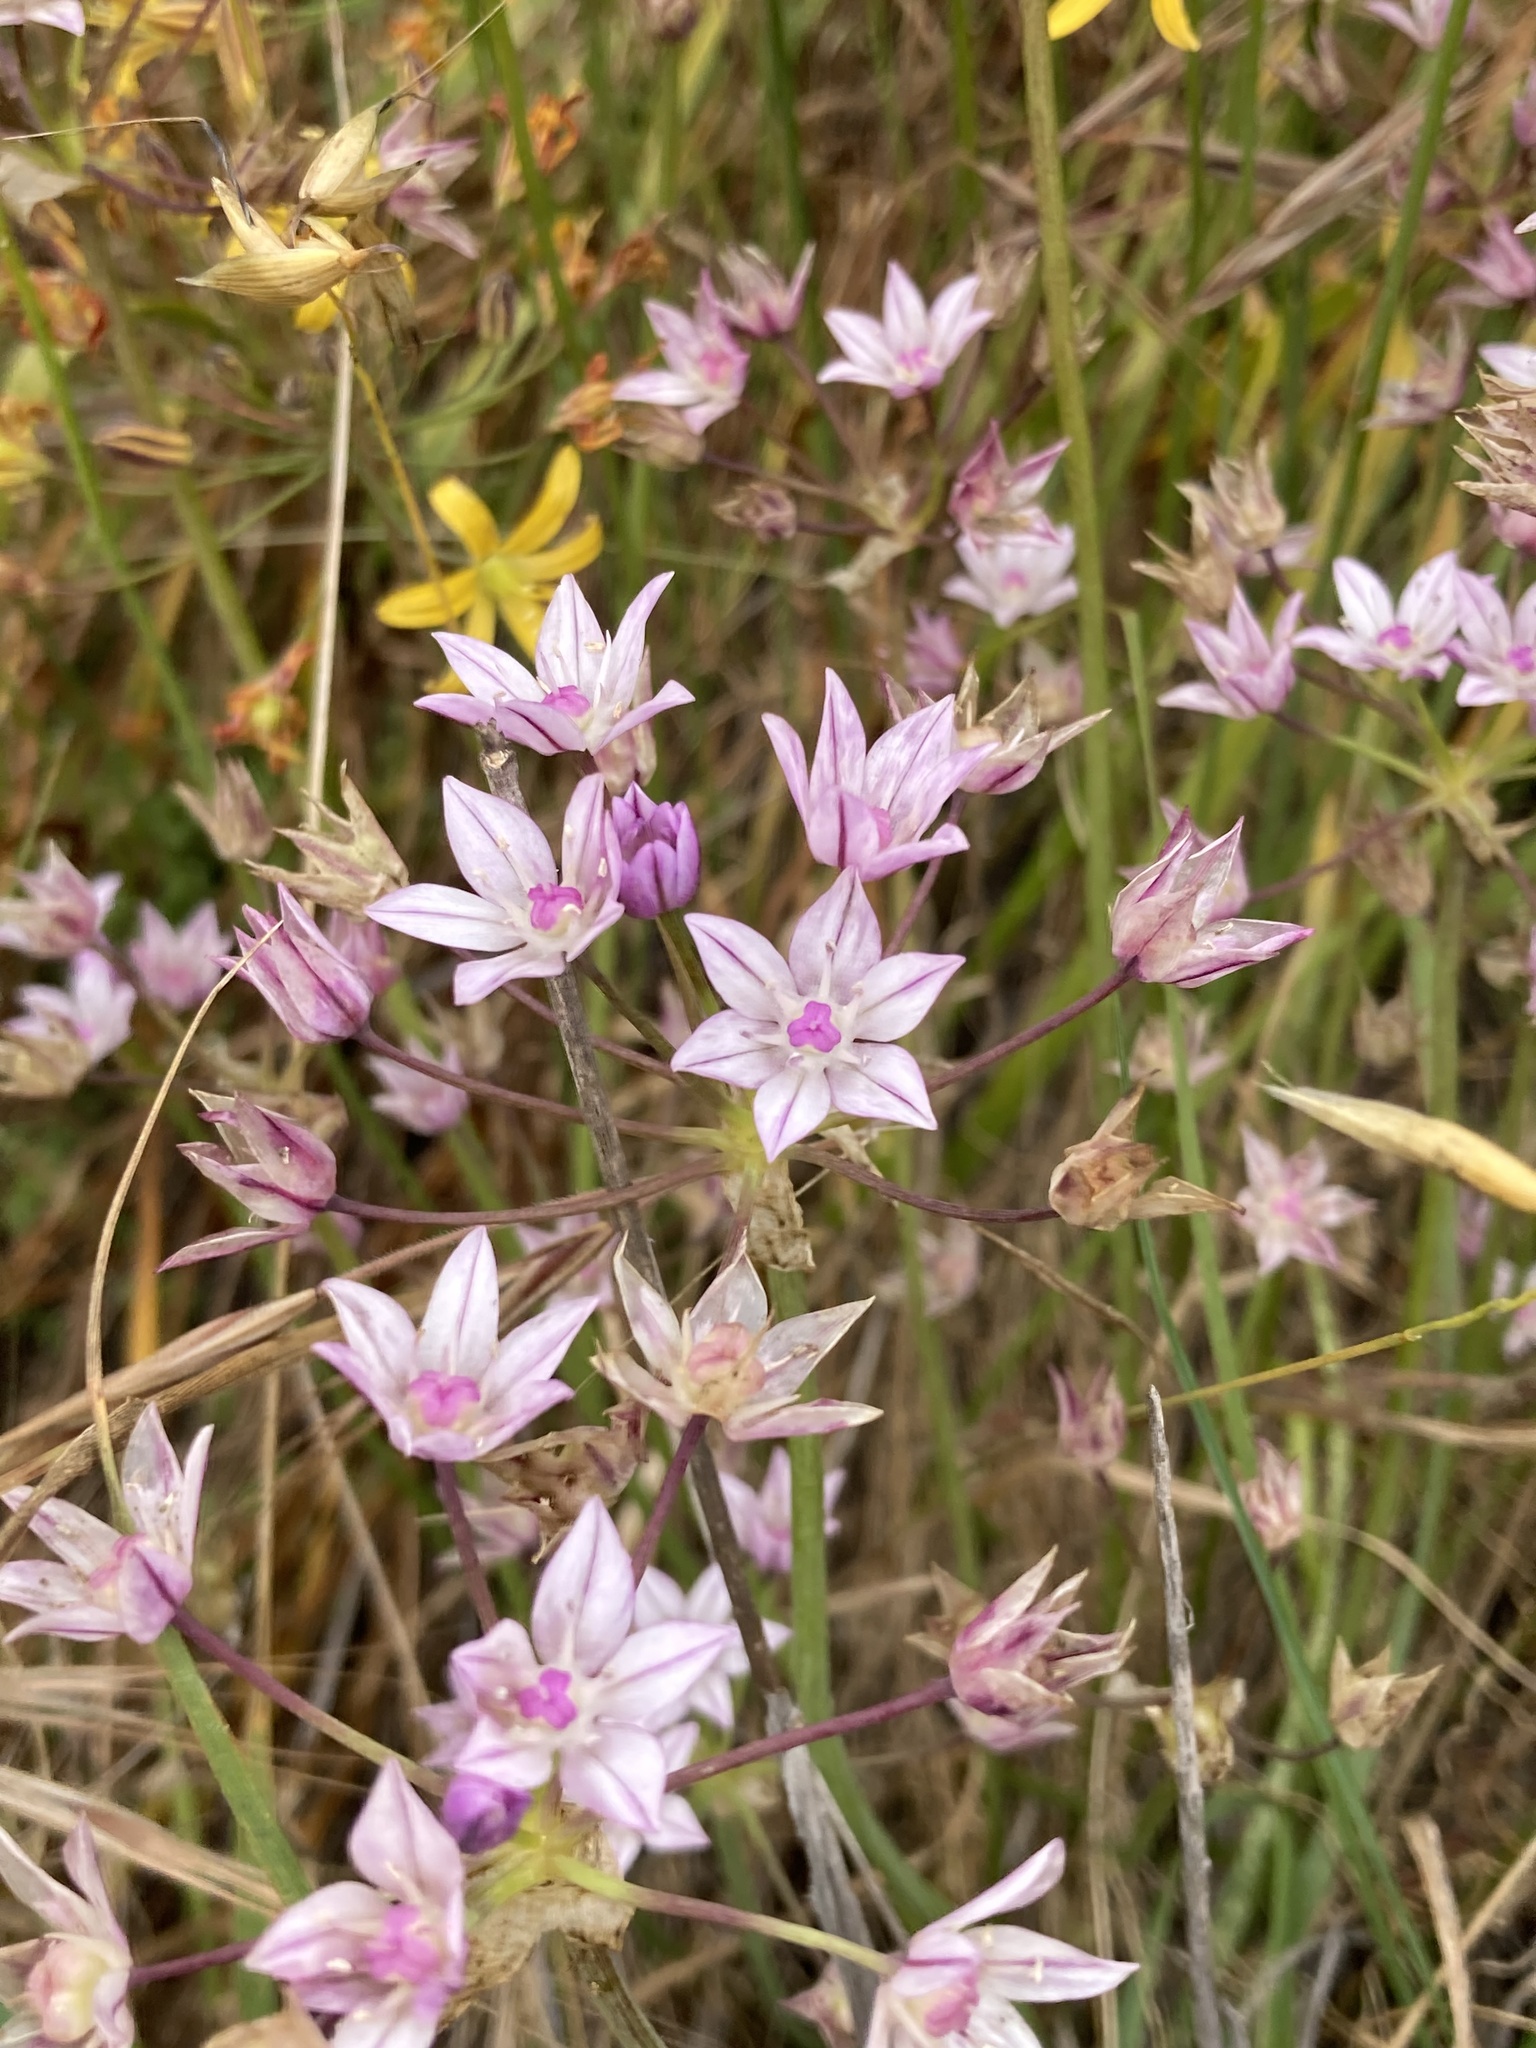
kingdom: Plantae
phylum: Tracheophyta
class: Liliopsida
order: Asparagales
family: Amaryllidaceae
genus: Allium
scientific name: Allium praecox
